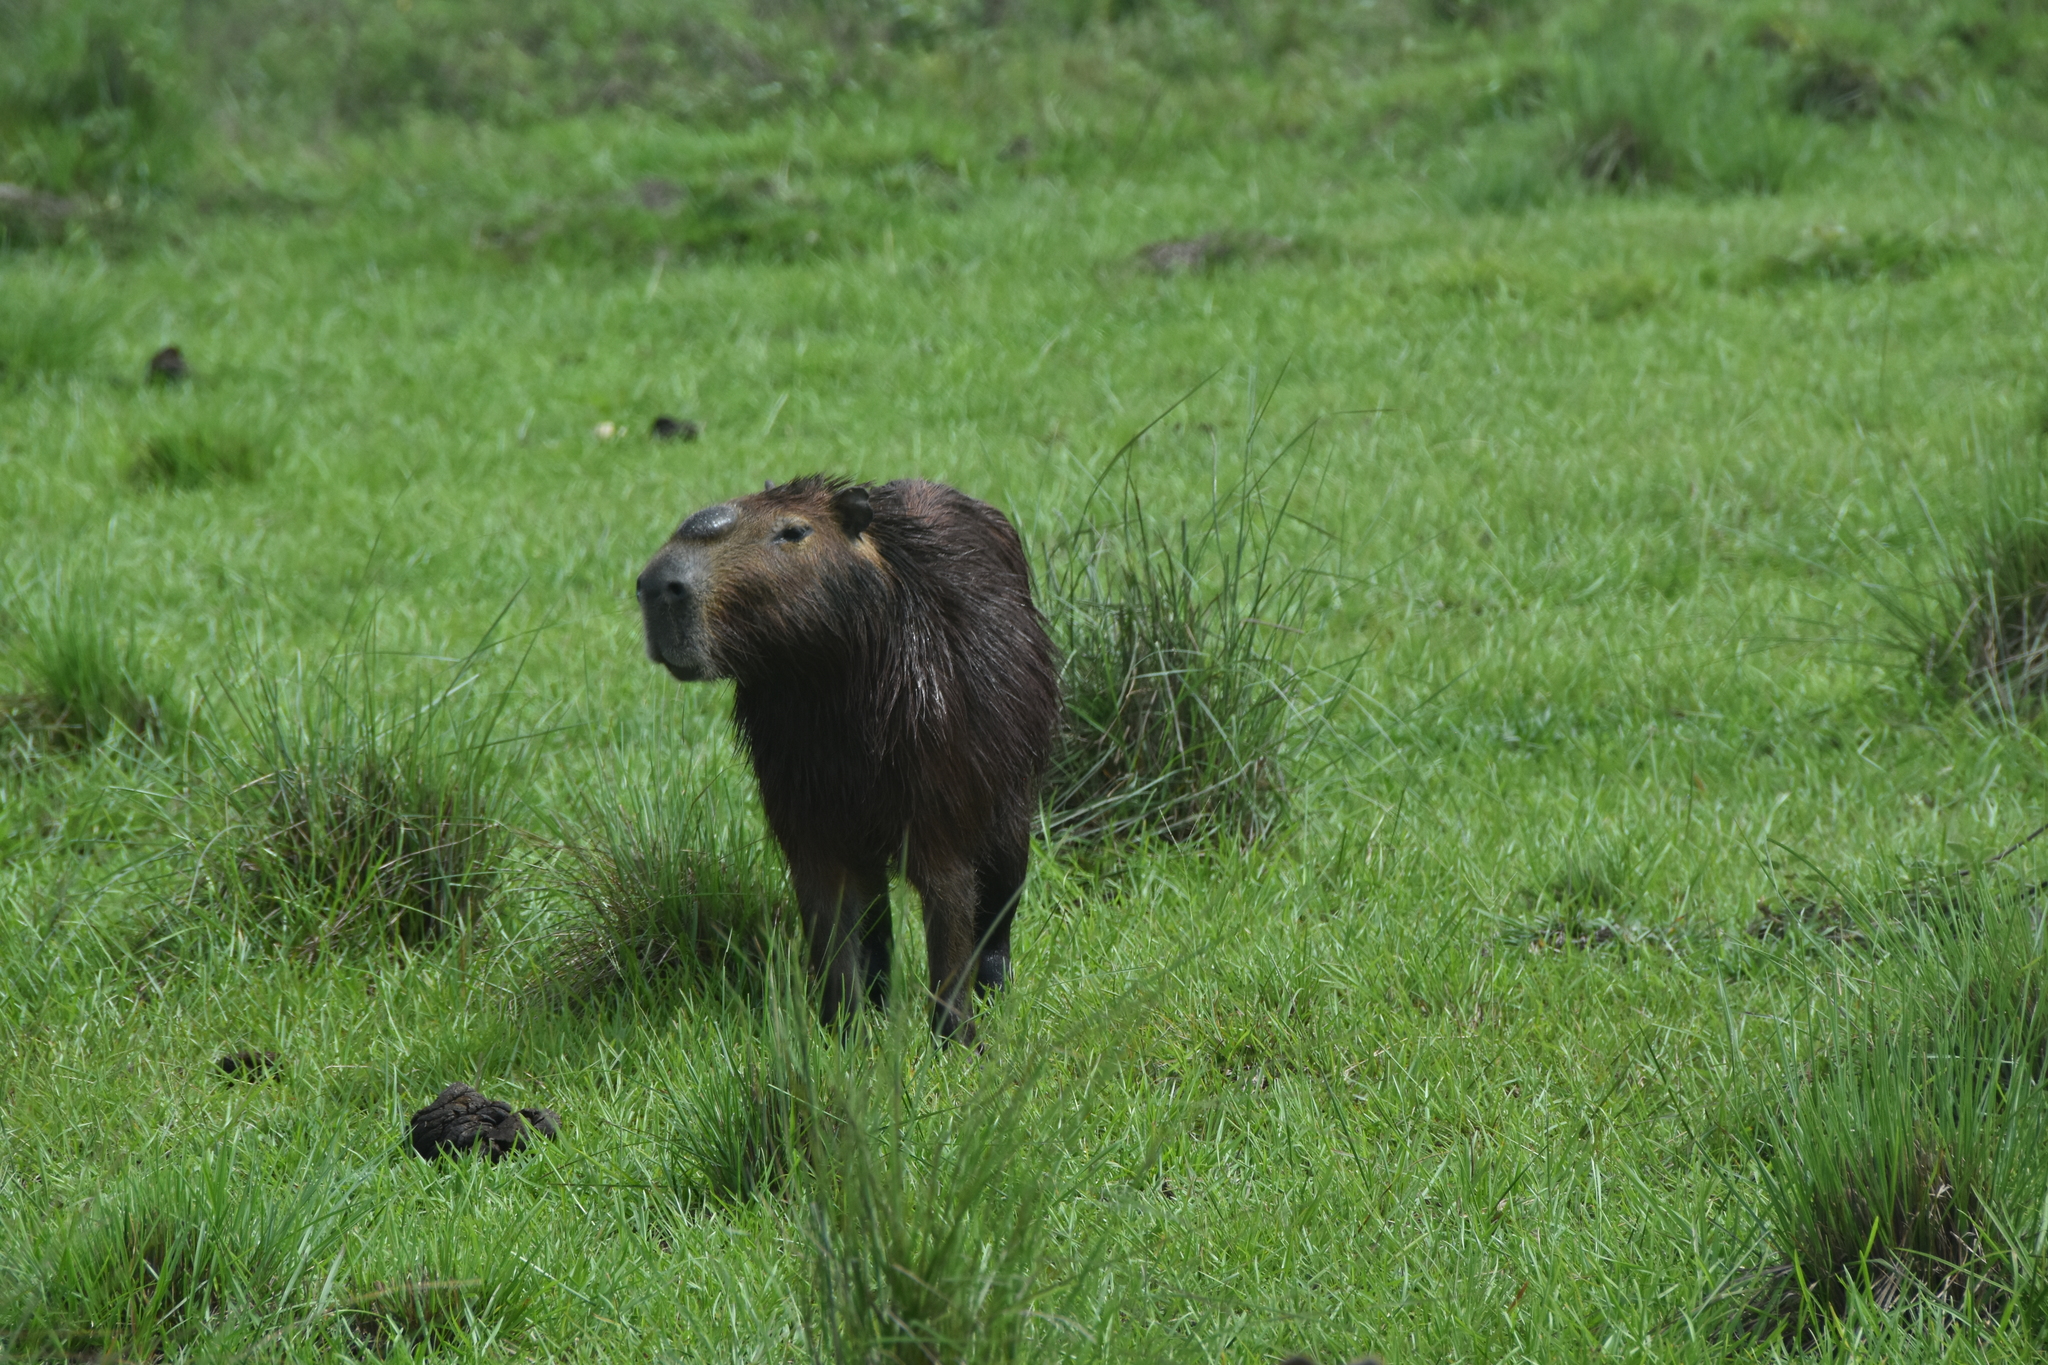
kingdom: Animalia
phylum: Chordata
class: Mammalia
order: Rodentia
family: Caviidae
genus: Hydrochoerus
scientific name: Hydrochoerus hydrochaeris
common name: Capybara
